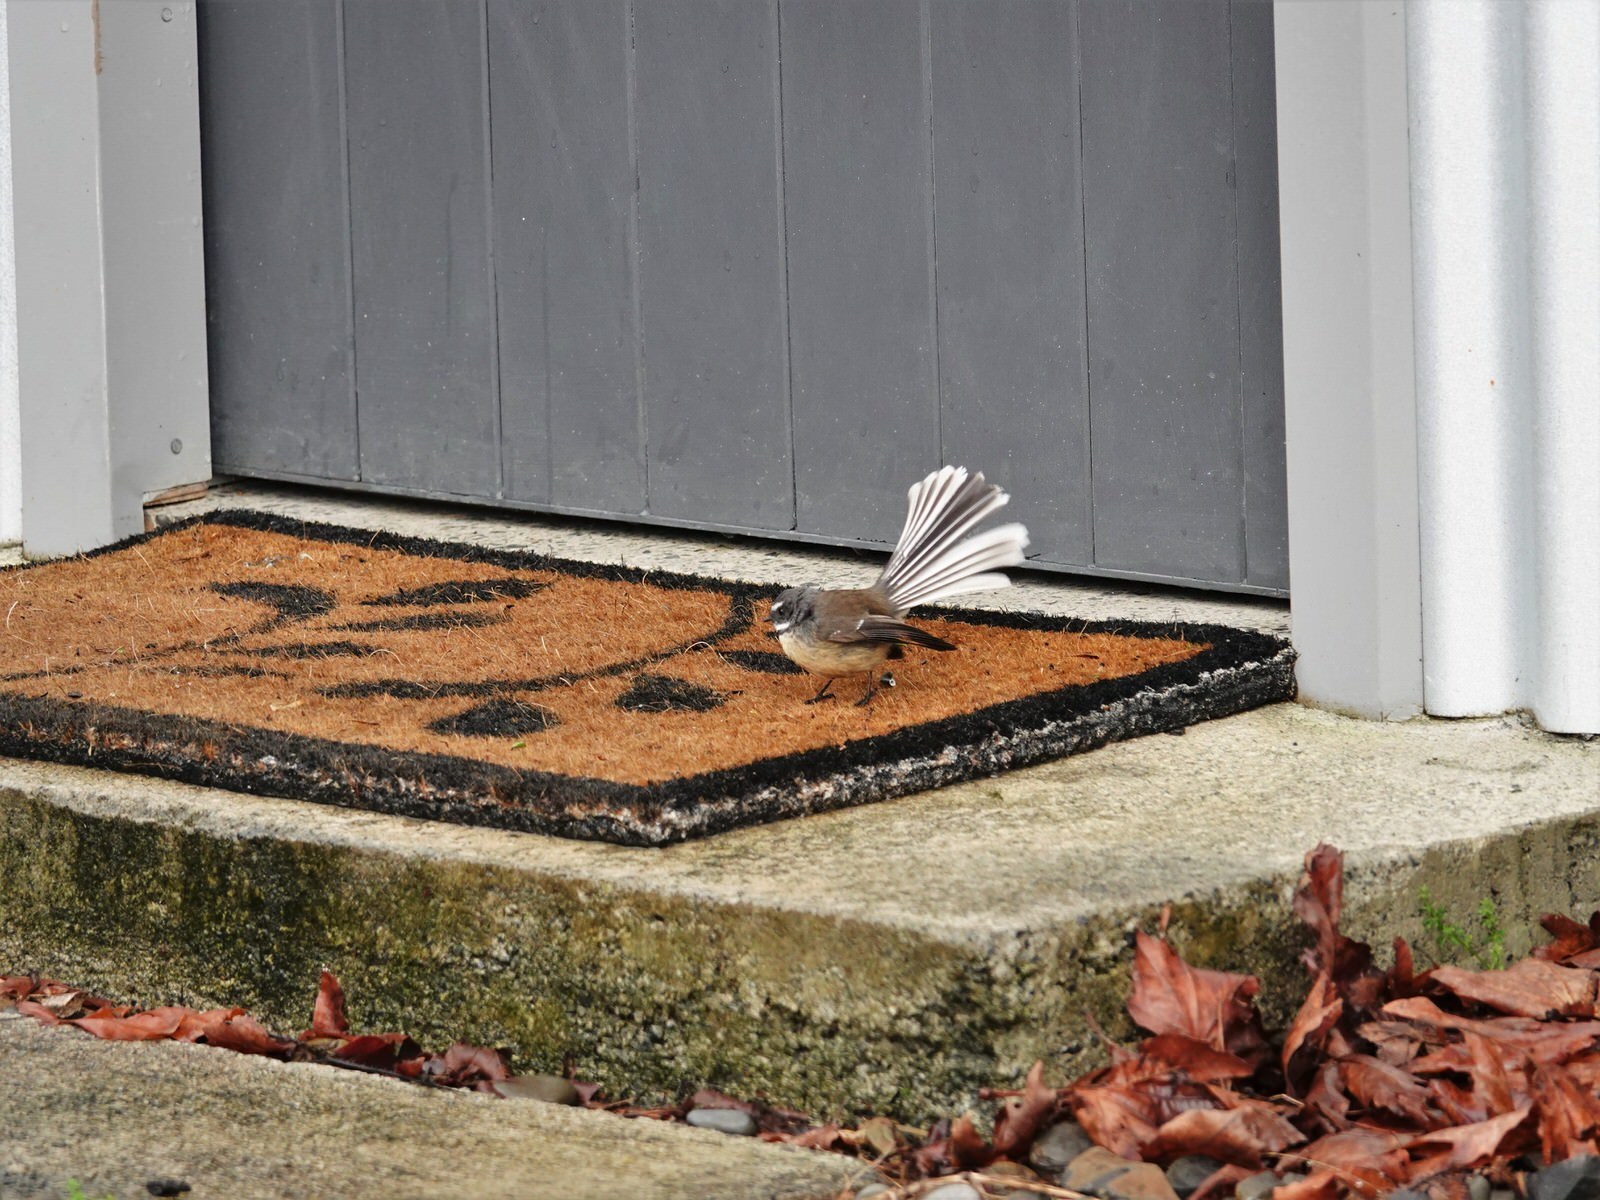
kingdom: Animalia
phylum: Chordata
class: Aves
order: Passeriformes
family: Rhipiduridae
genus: Rhipidura
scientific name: Rhipidura fuliginosa
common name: New zealand fantail
